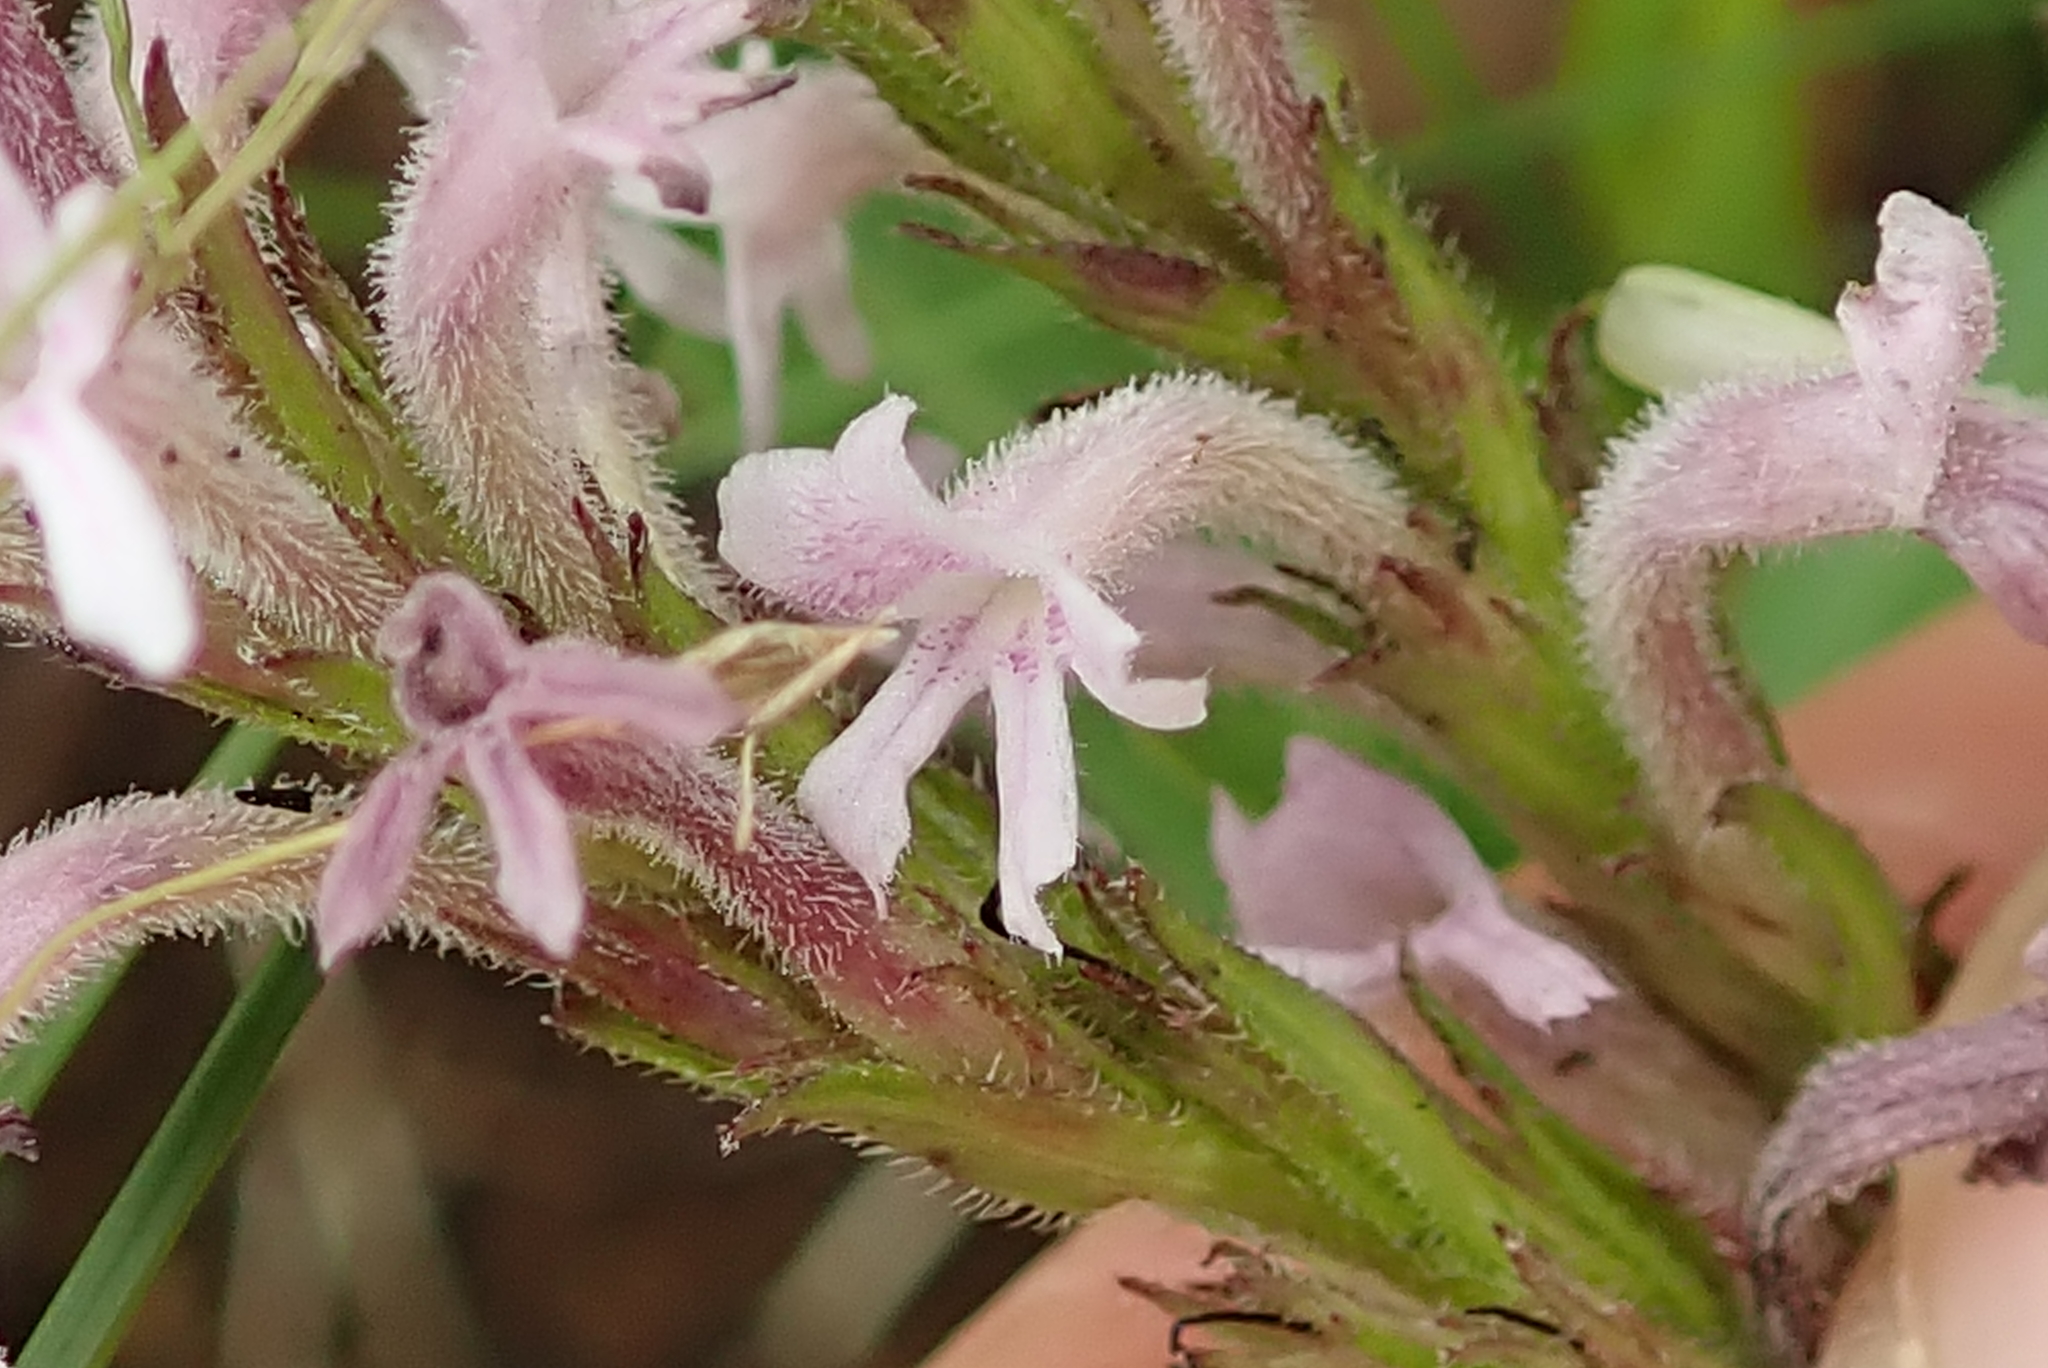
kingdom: Plantae
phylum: Tracheophyta
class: Magnoliopsida
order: Lamiales
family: Orobanchaceae
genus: Striga
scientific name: Striga bilabiata
